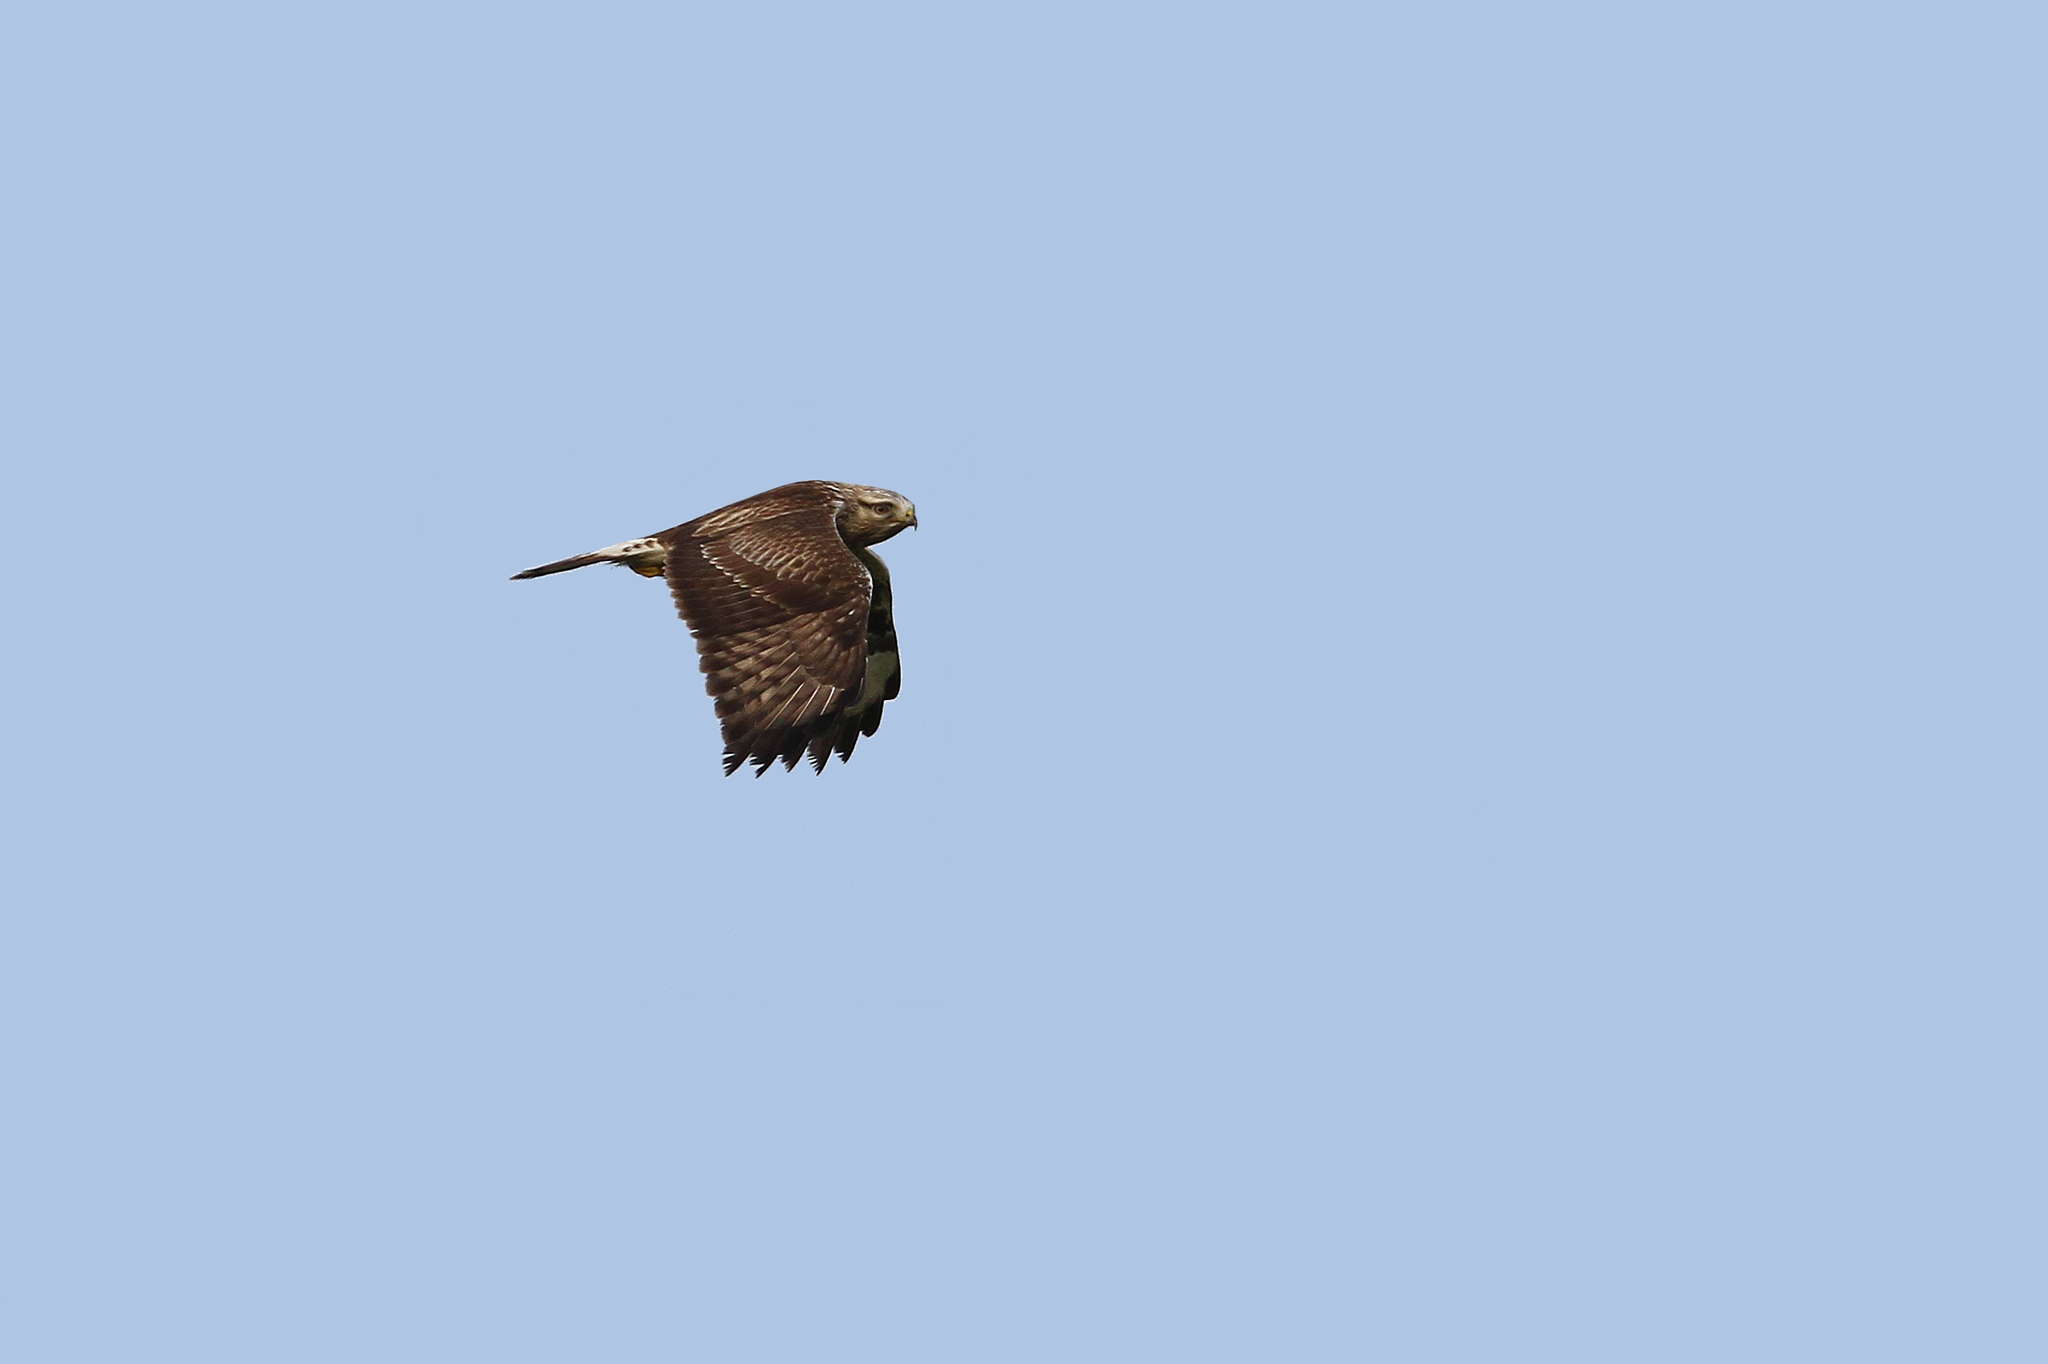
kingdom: Animalia
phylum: Chordata
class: Aves
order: Accipitriformes
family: Accipitridae
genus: Buteo
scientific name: Buteo lagopus
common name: Rough-legged buzzard
